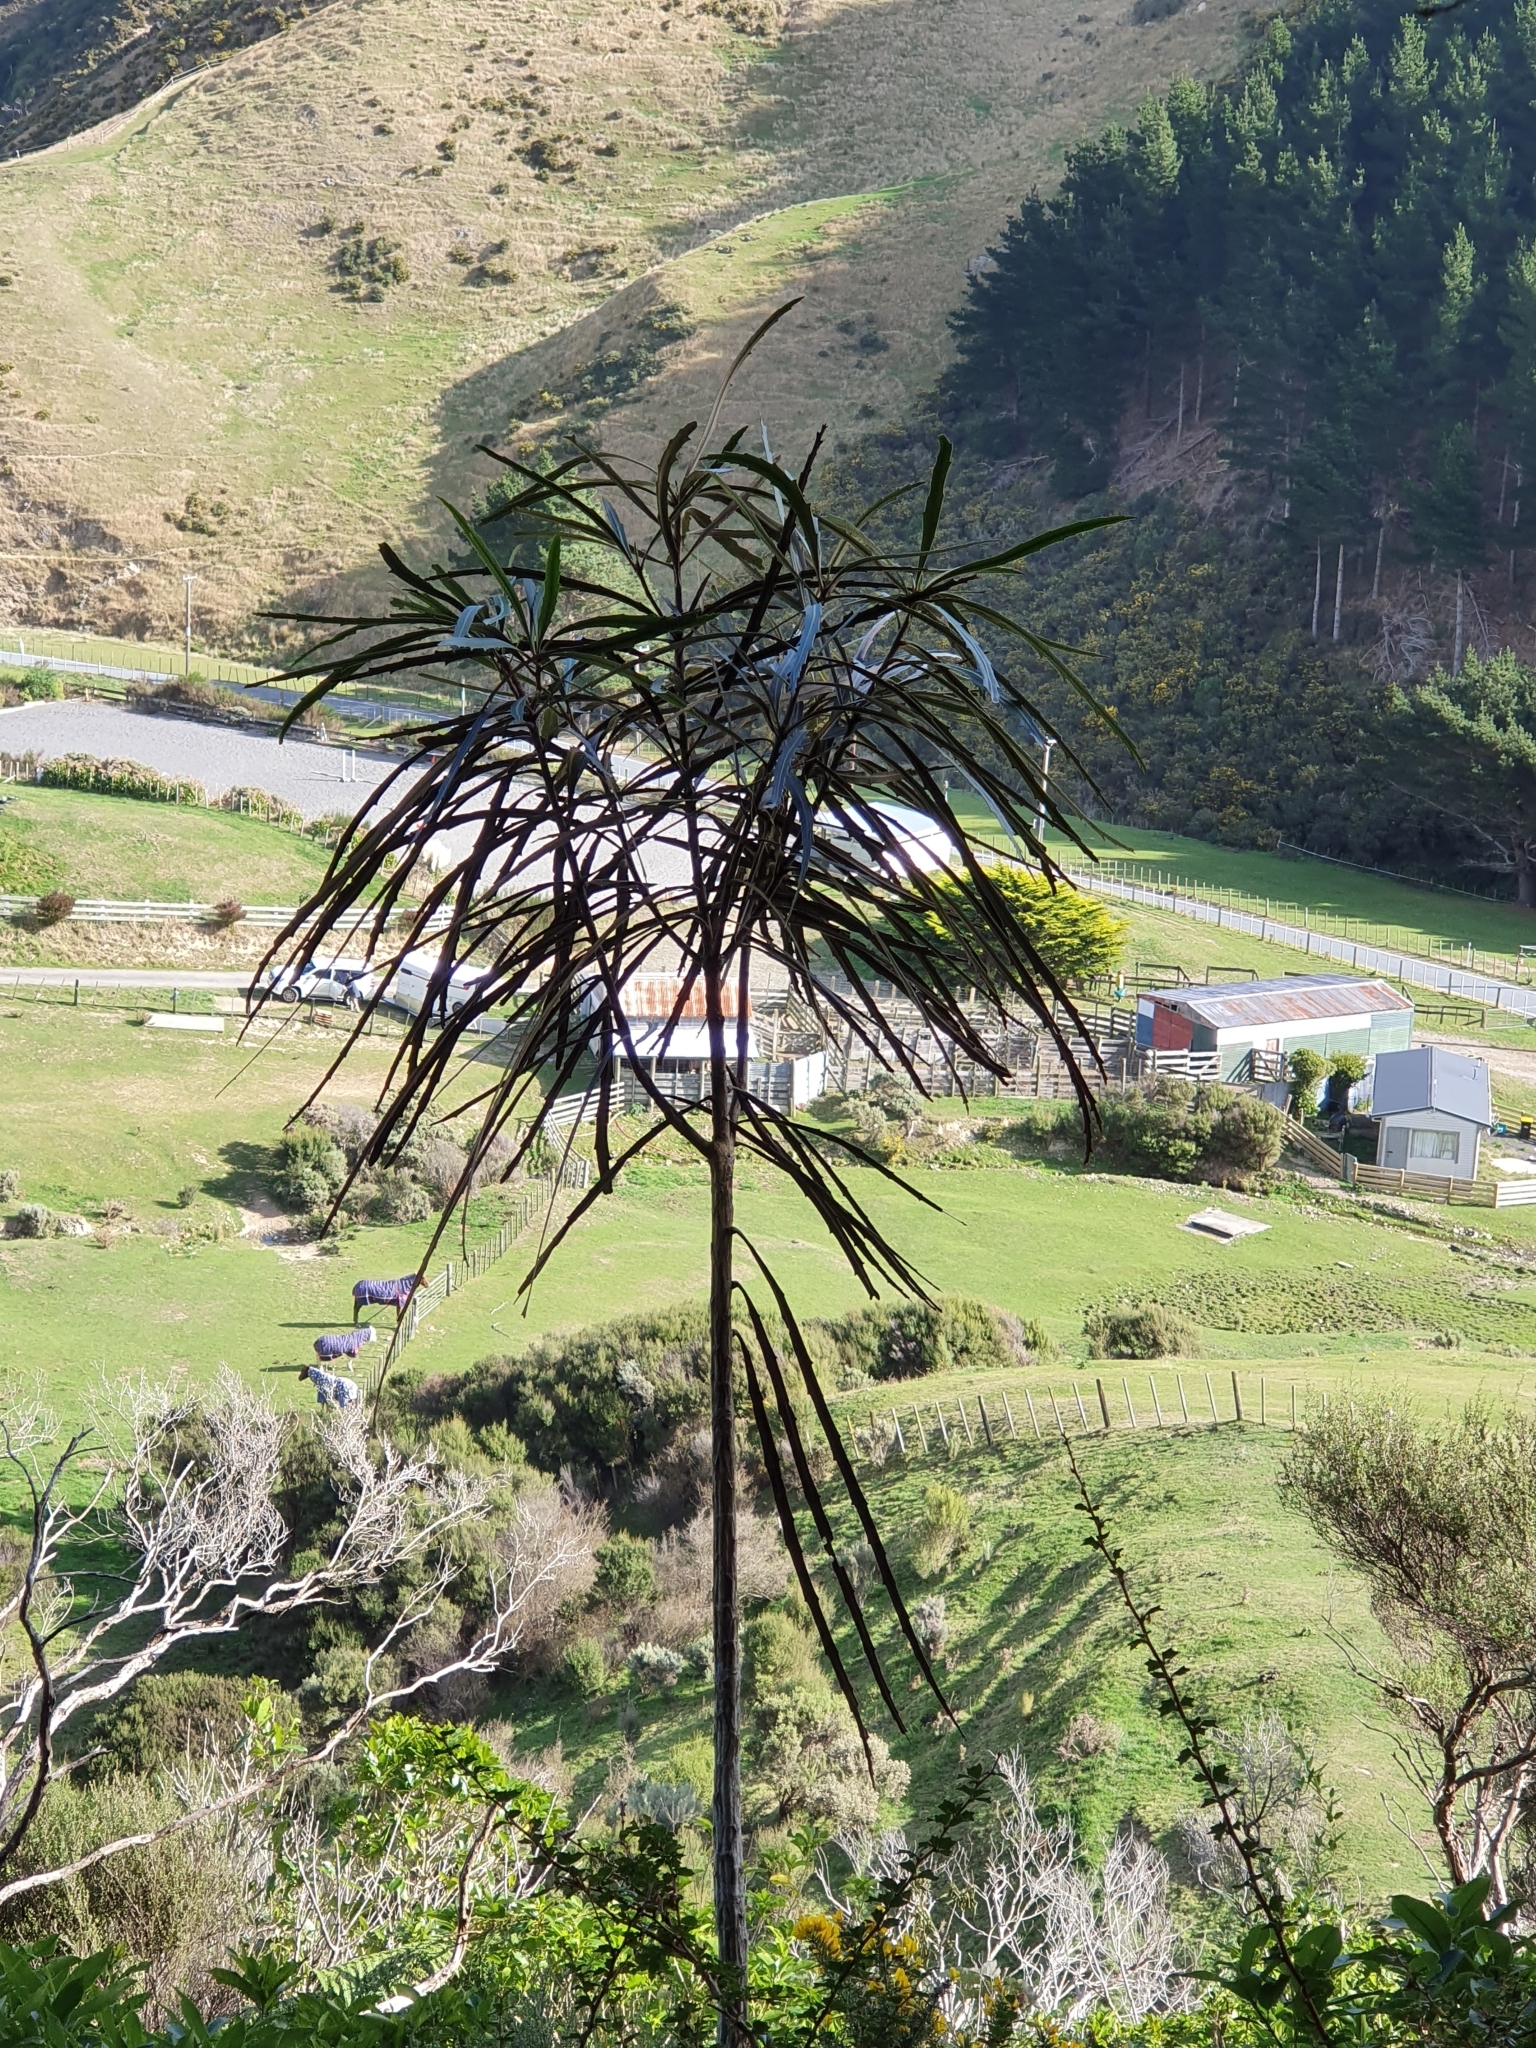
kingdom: Plantae
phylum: Tracheophyta
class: Magnoliopsida
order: Apiales
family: Araliaceae
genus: Pseudopanax
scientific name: Pseudopanax crassifolius
